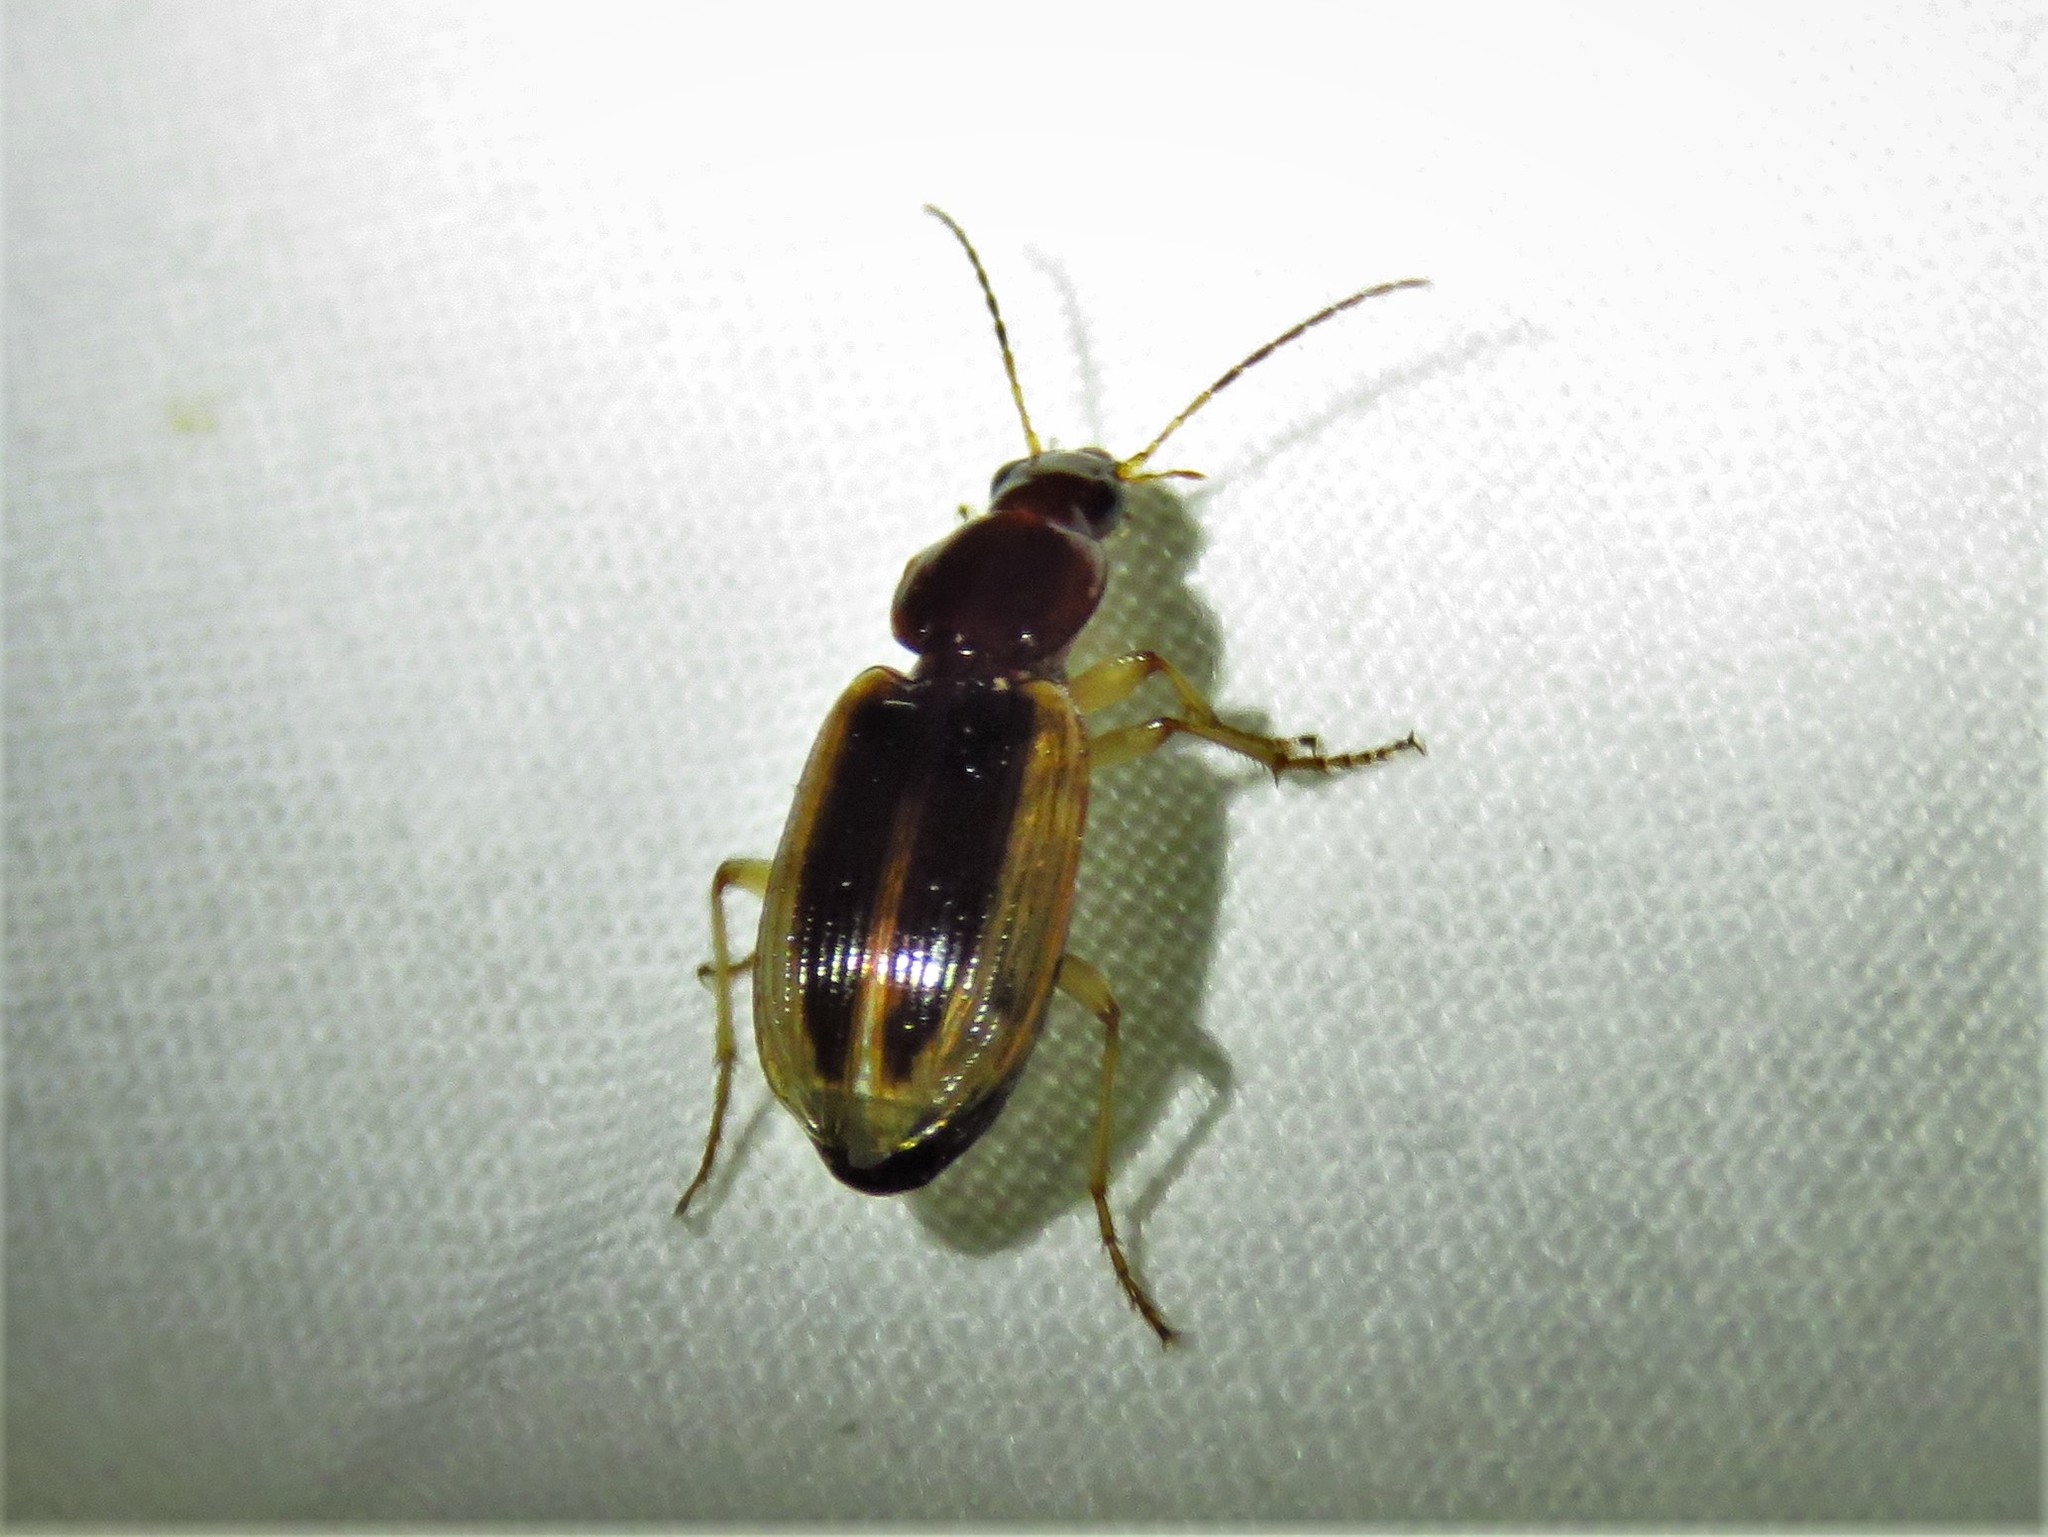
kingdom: Animalia
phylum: Arthropoda
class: Insecta
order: Coleoptera
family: Carabidae
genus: Agonum
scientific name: Agonum pallipes
